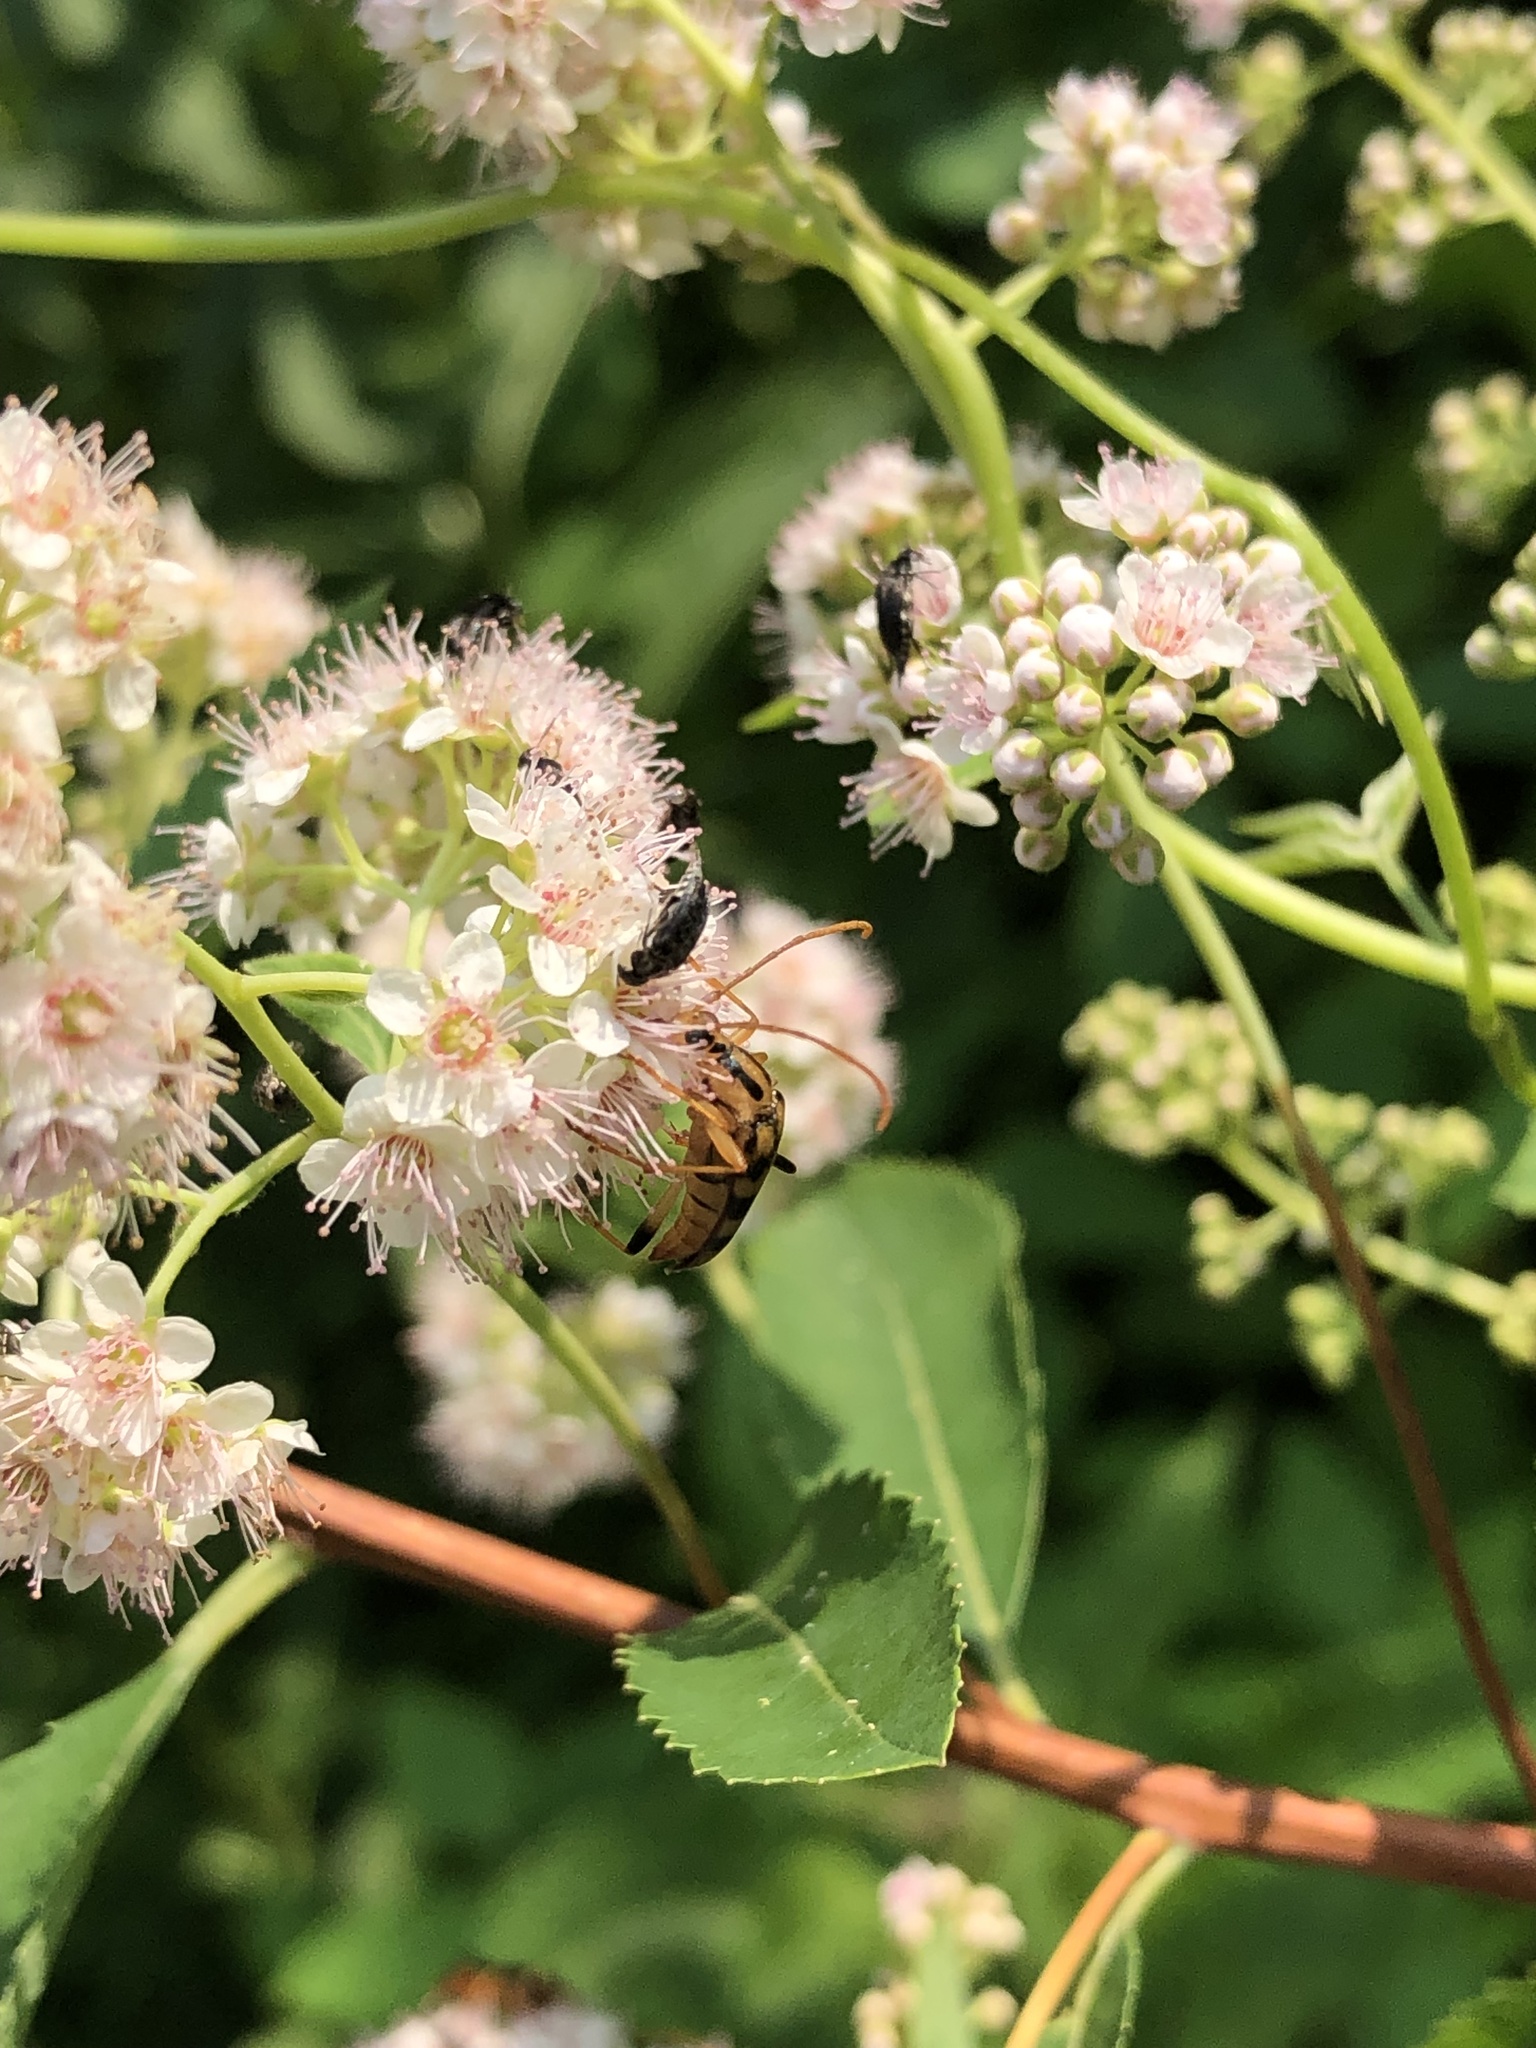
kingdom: Animalia
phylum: Arthropoda
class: Insecta
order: Coleoptera
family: Cerambycidae
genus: Strangalia
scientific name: Strangalia famelica
